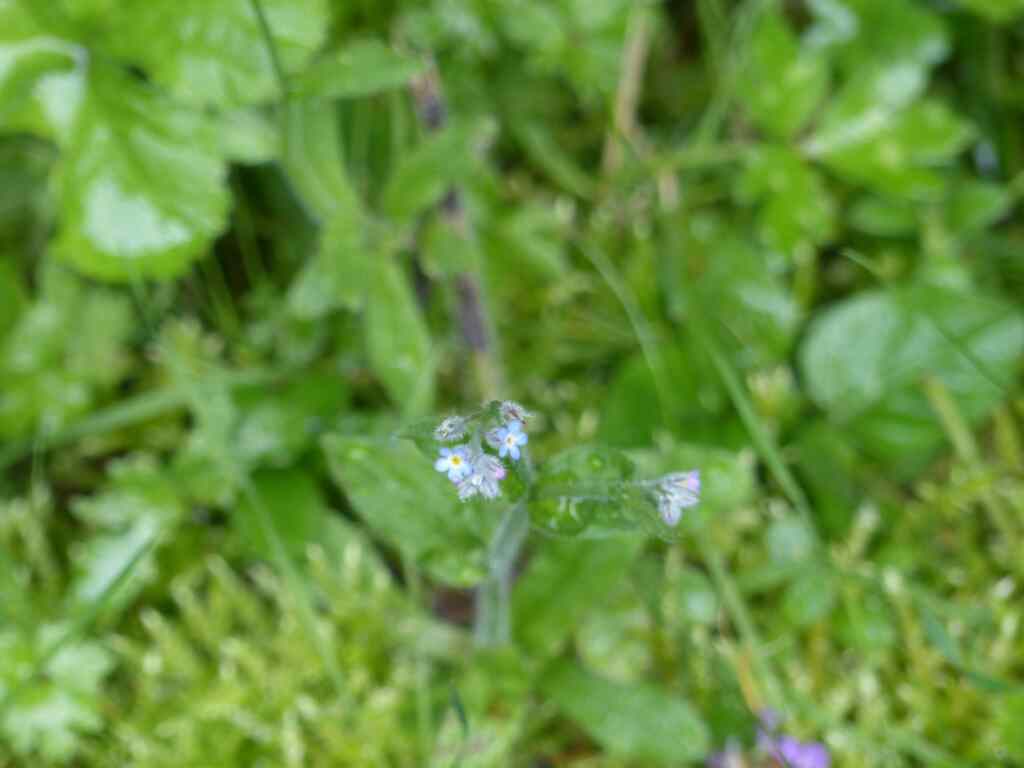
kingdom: Plantae
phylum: Tracheophyta
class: Magnoliopsida
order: Boraginales
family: Boraginaceae
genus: Myosotis
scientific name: Myosotis arvensis
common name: Field forget-me-not
